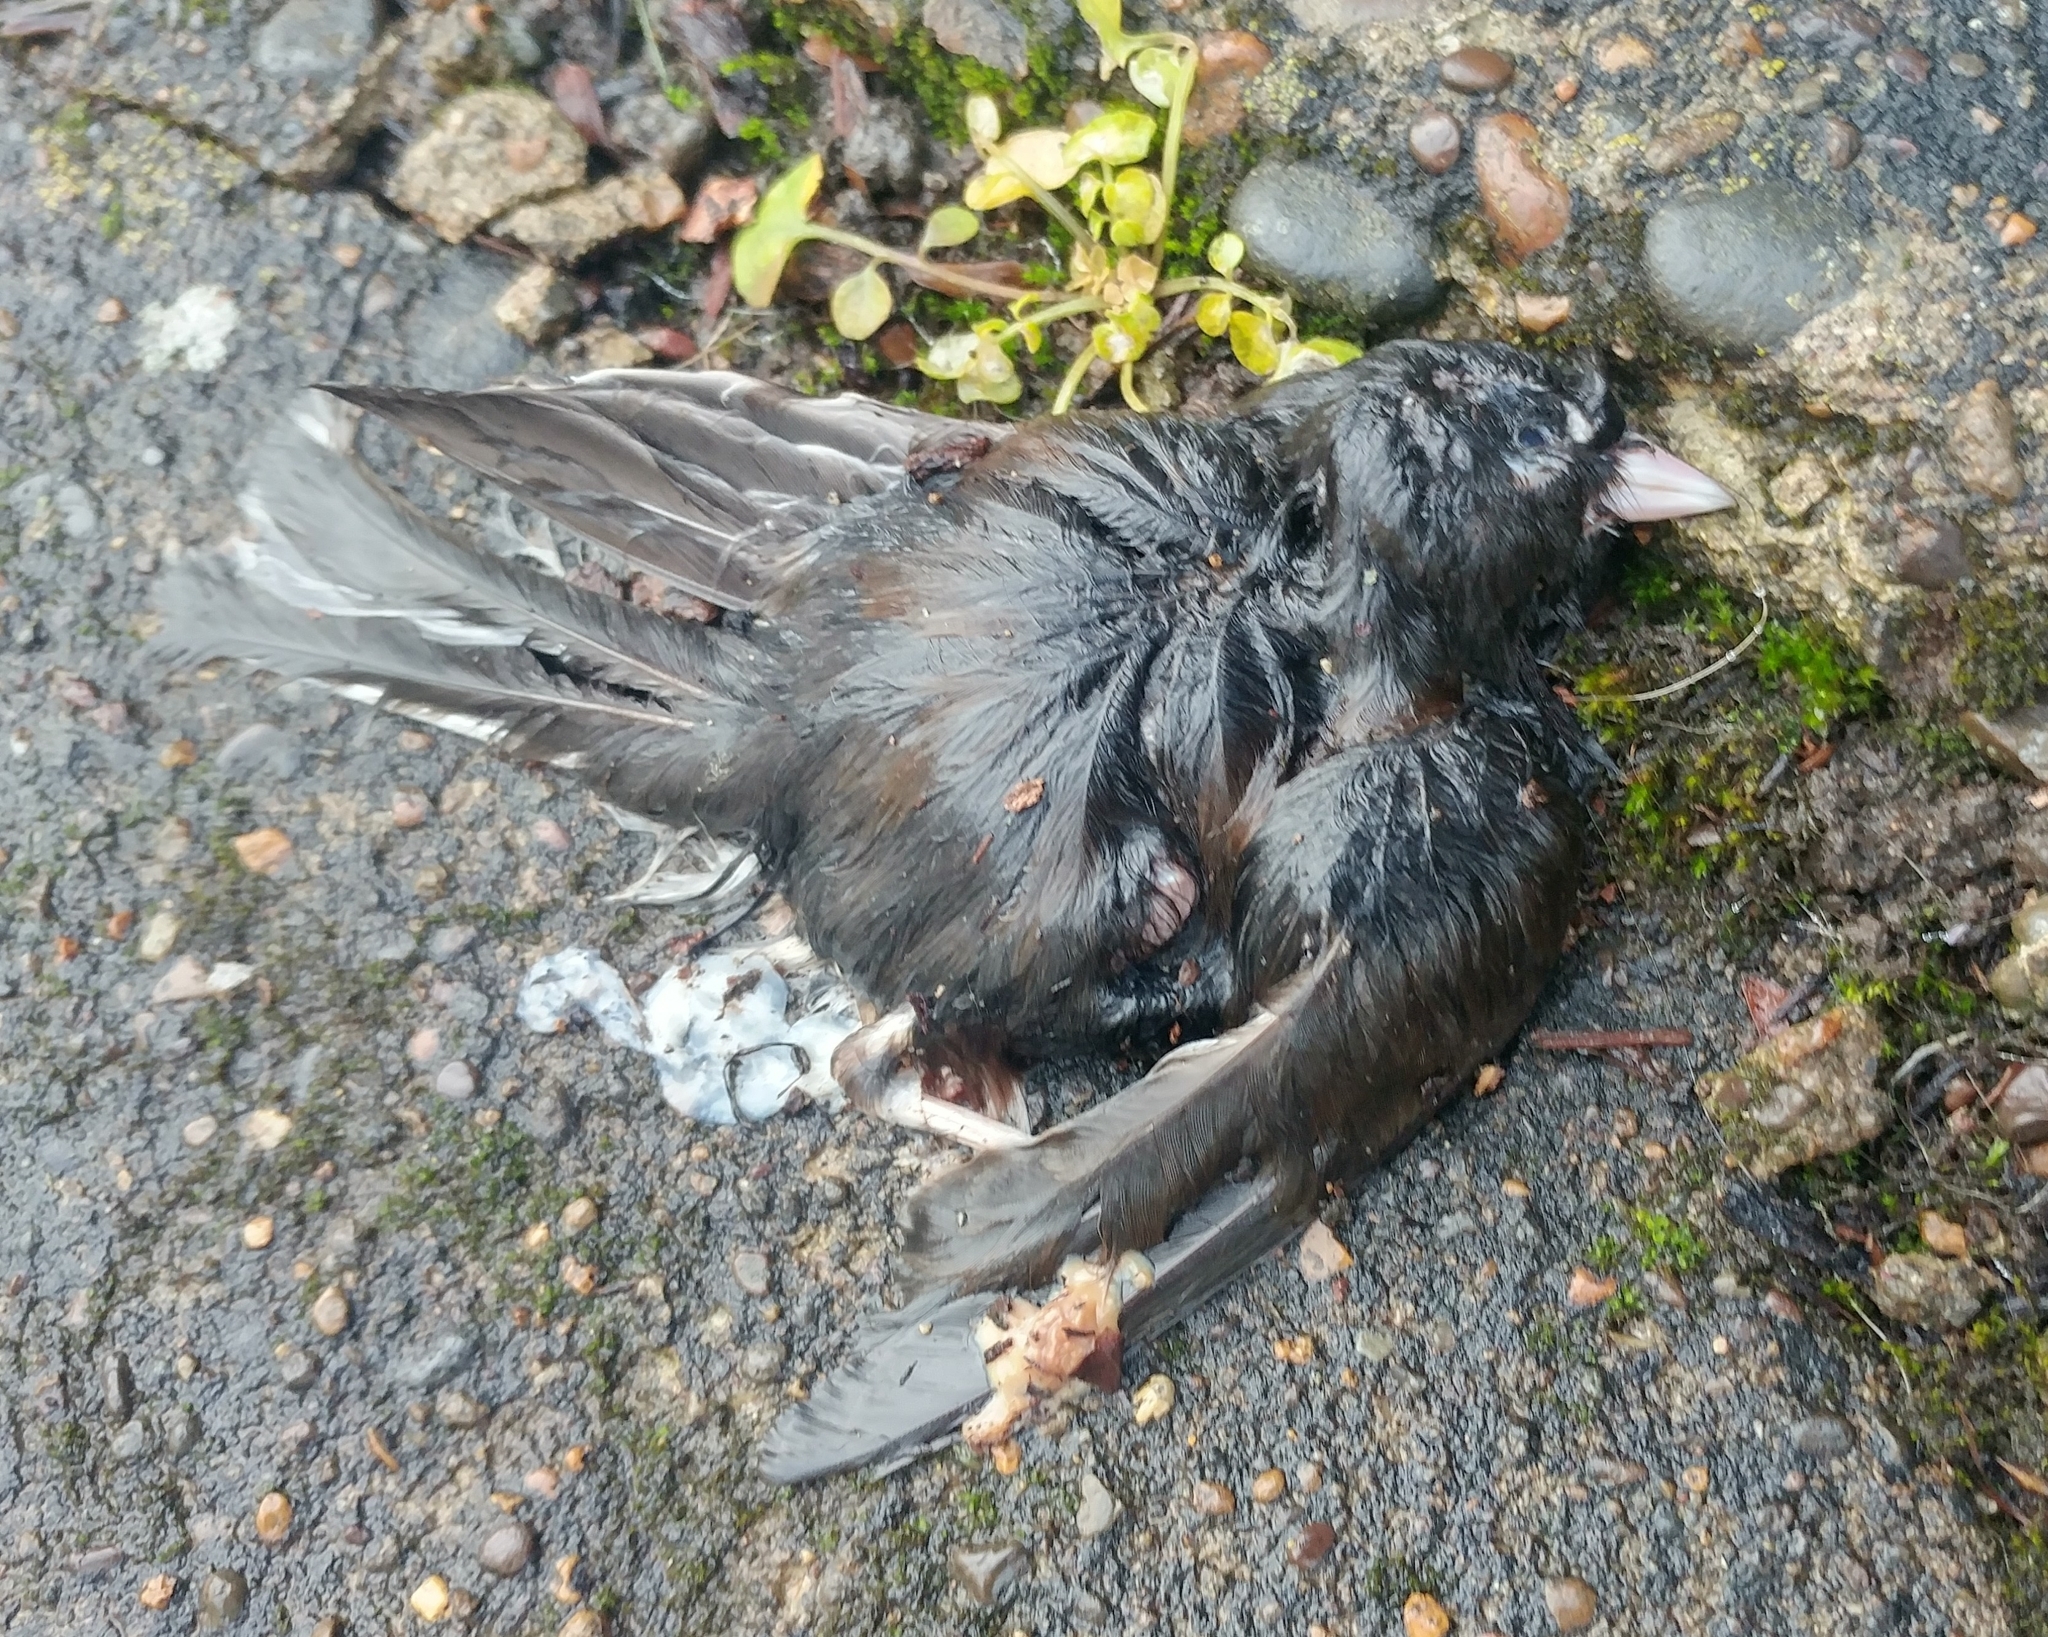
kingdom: Animalia
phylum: Chordata
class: Aves
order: Passeriformes
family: Passerellidae
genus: Junco
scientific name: Junco hyemalis
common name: Dark-eyed junco
